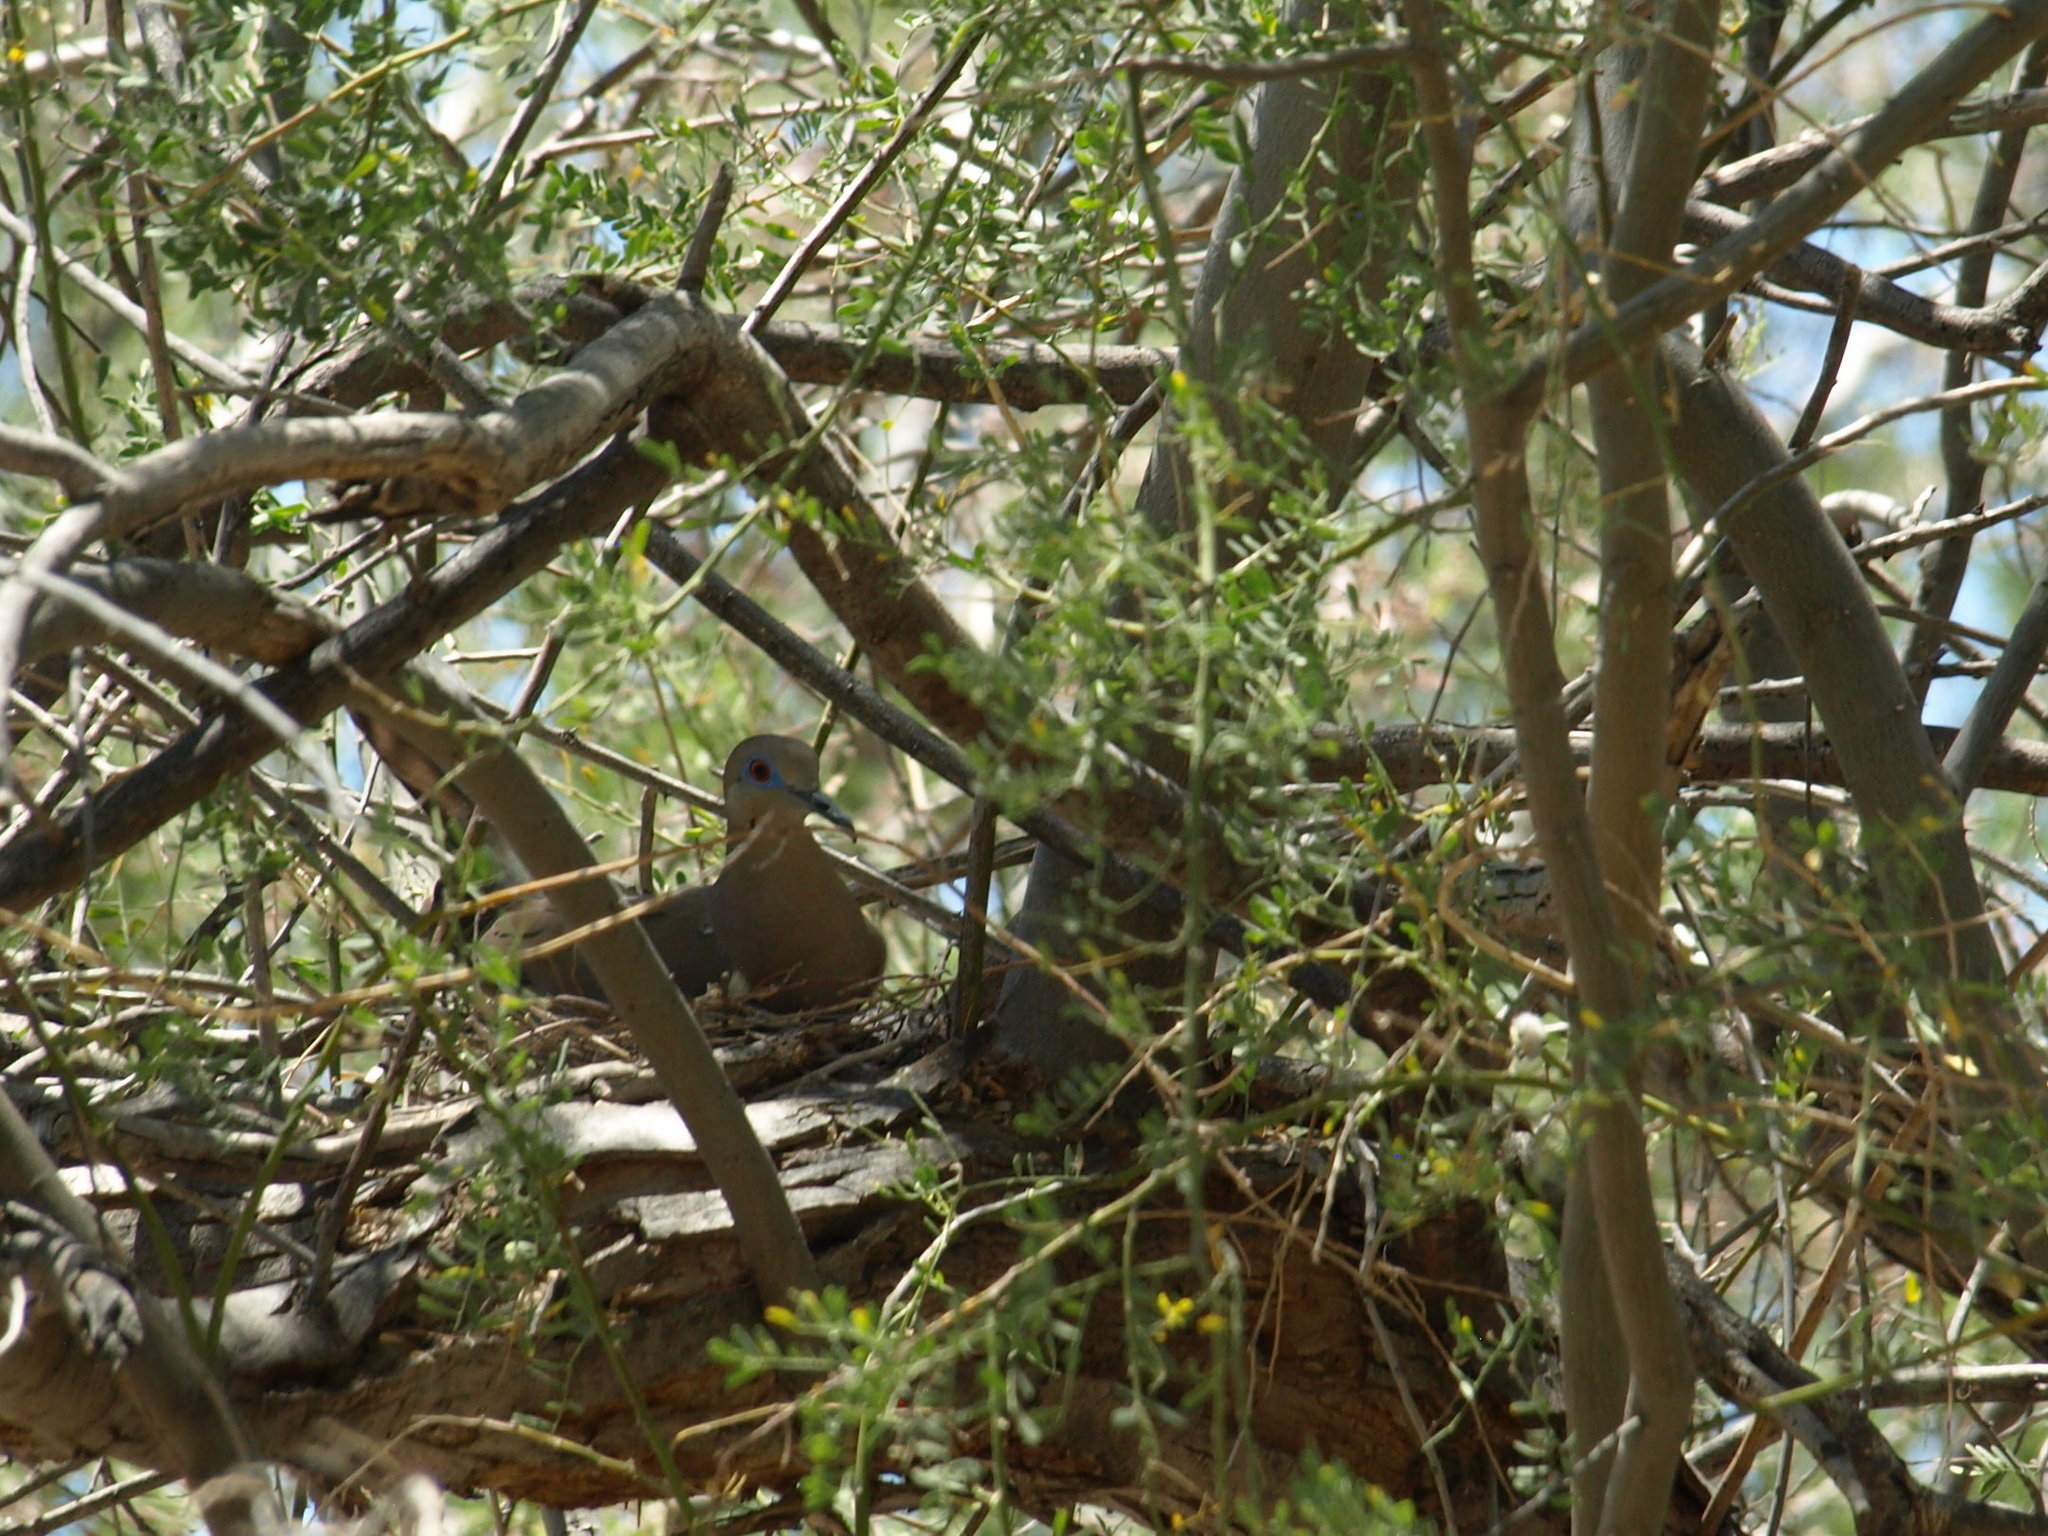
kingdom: Animalia
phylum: Chordata
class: Aves
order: Columbiformes
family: Columbidae
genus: Zenaida
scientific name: Zenaida asiatica
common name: White-winged dove
